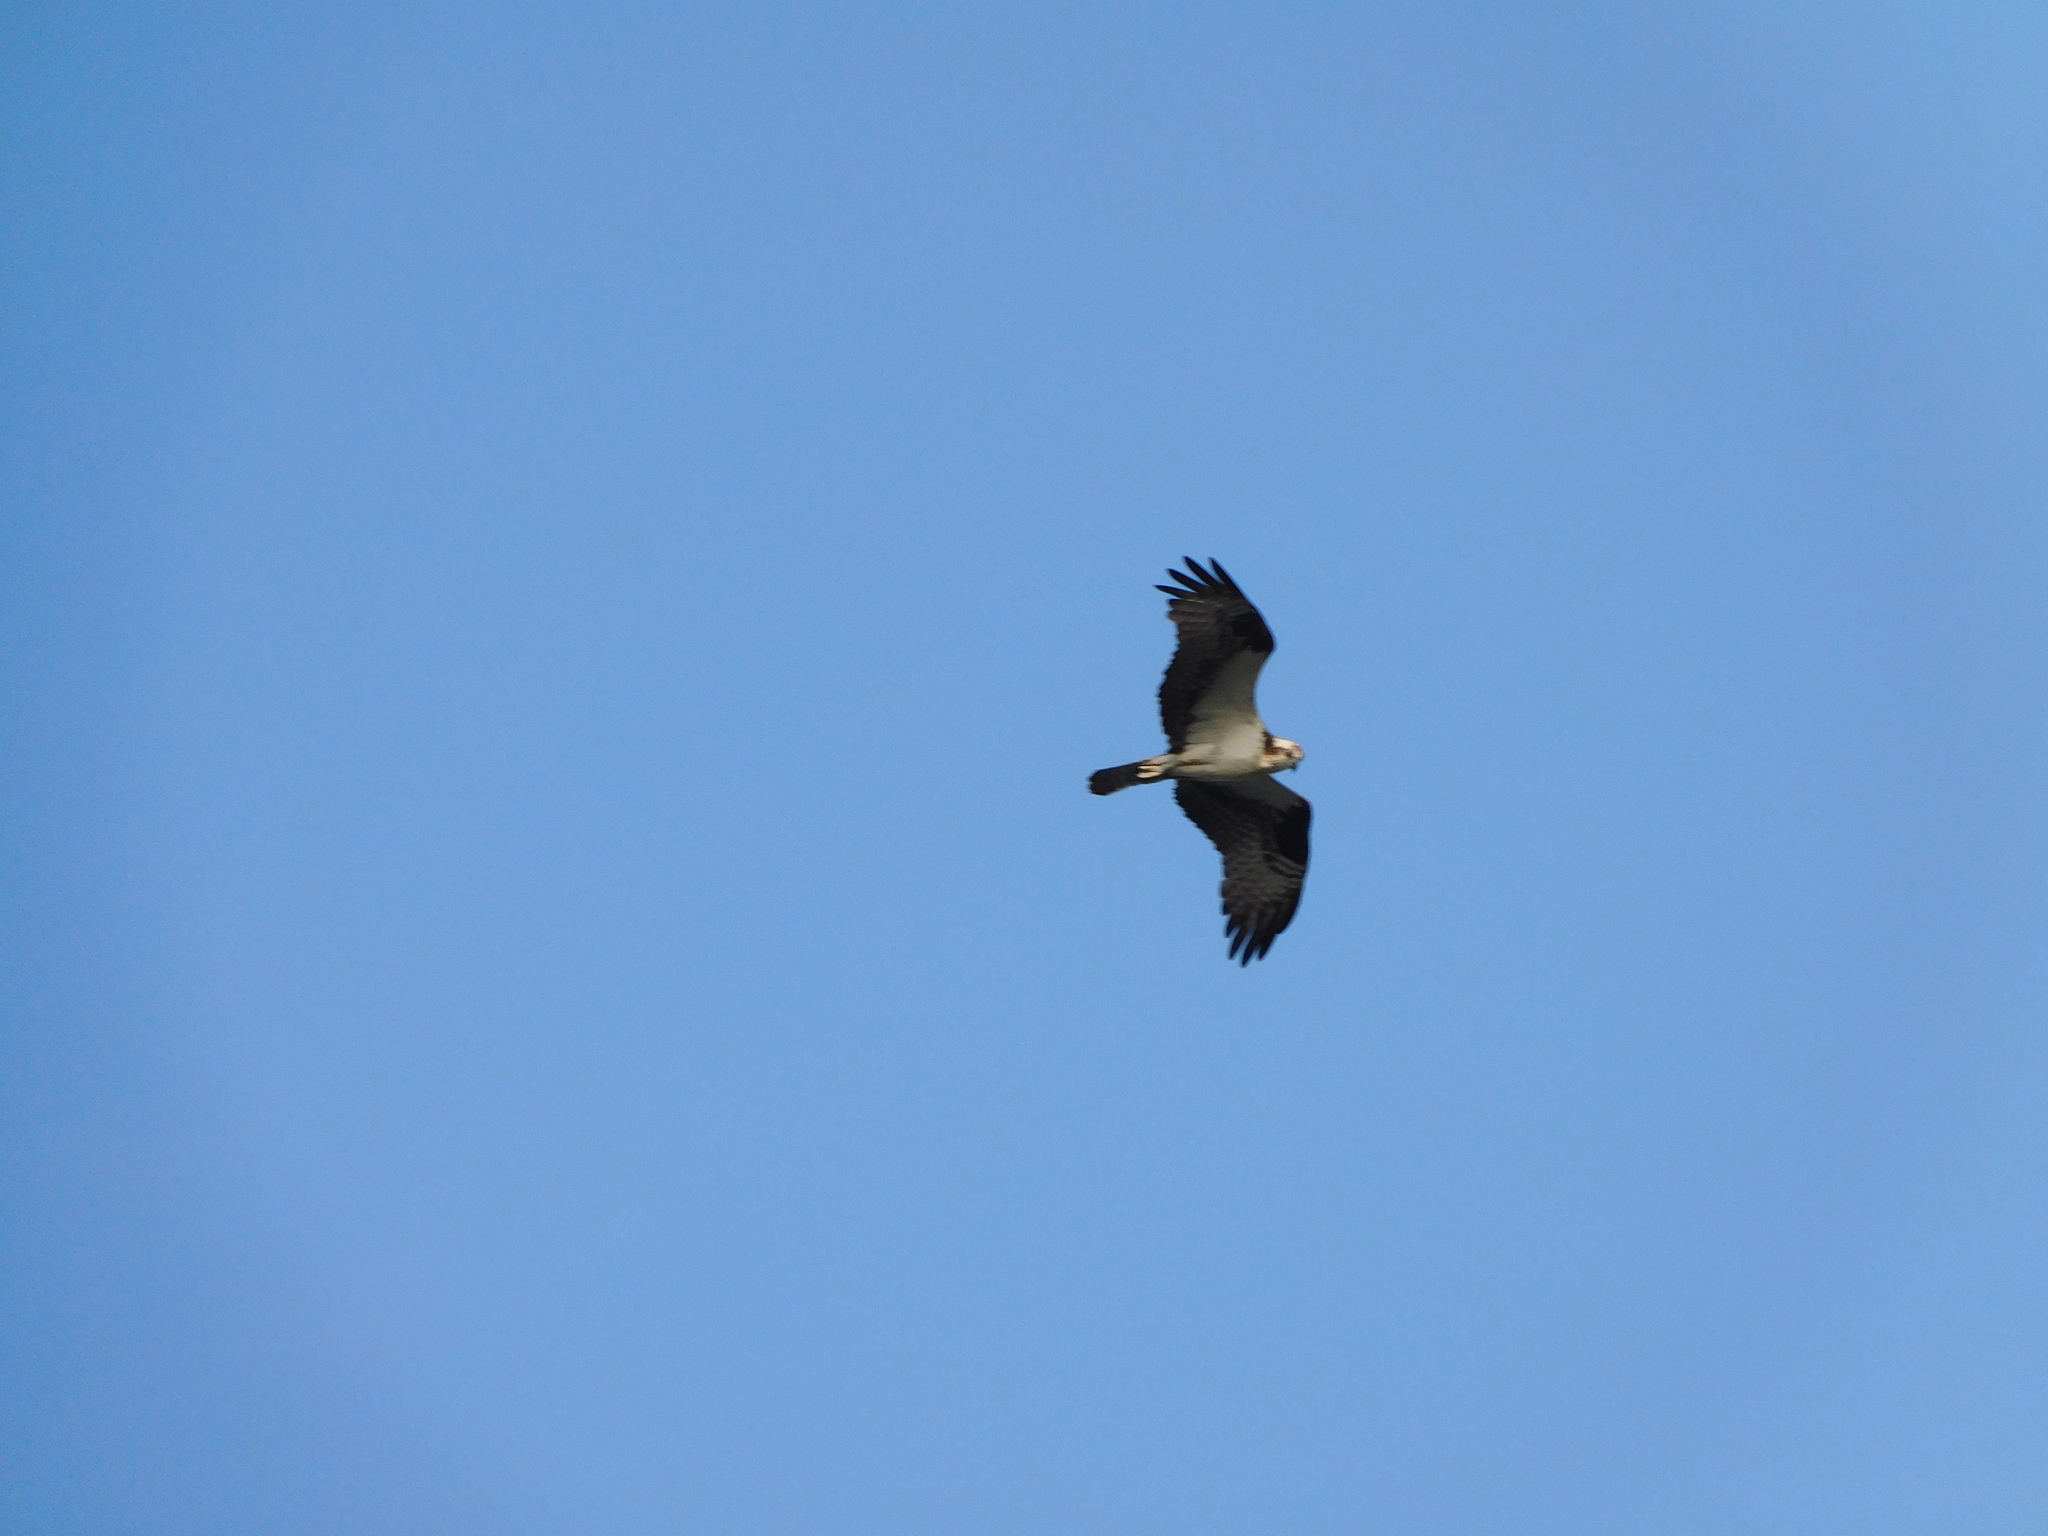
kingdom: Animalia
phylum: Chordata
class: Aves
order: Accipitriformes
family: Pandionidae
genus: Pandion
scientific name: Pandion haliaetus
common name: Osprey
